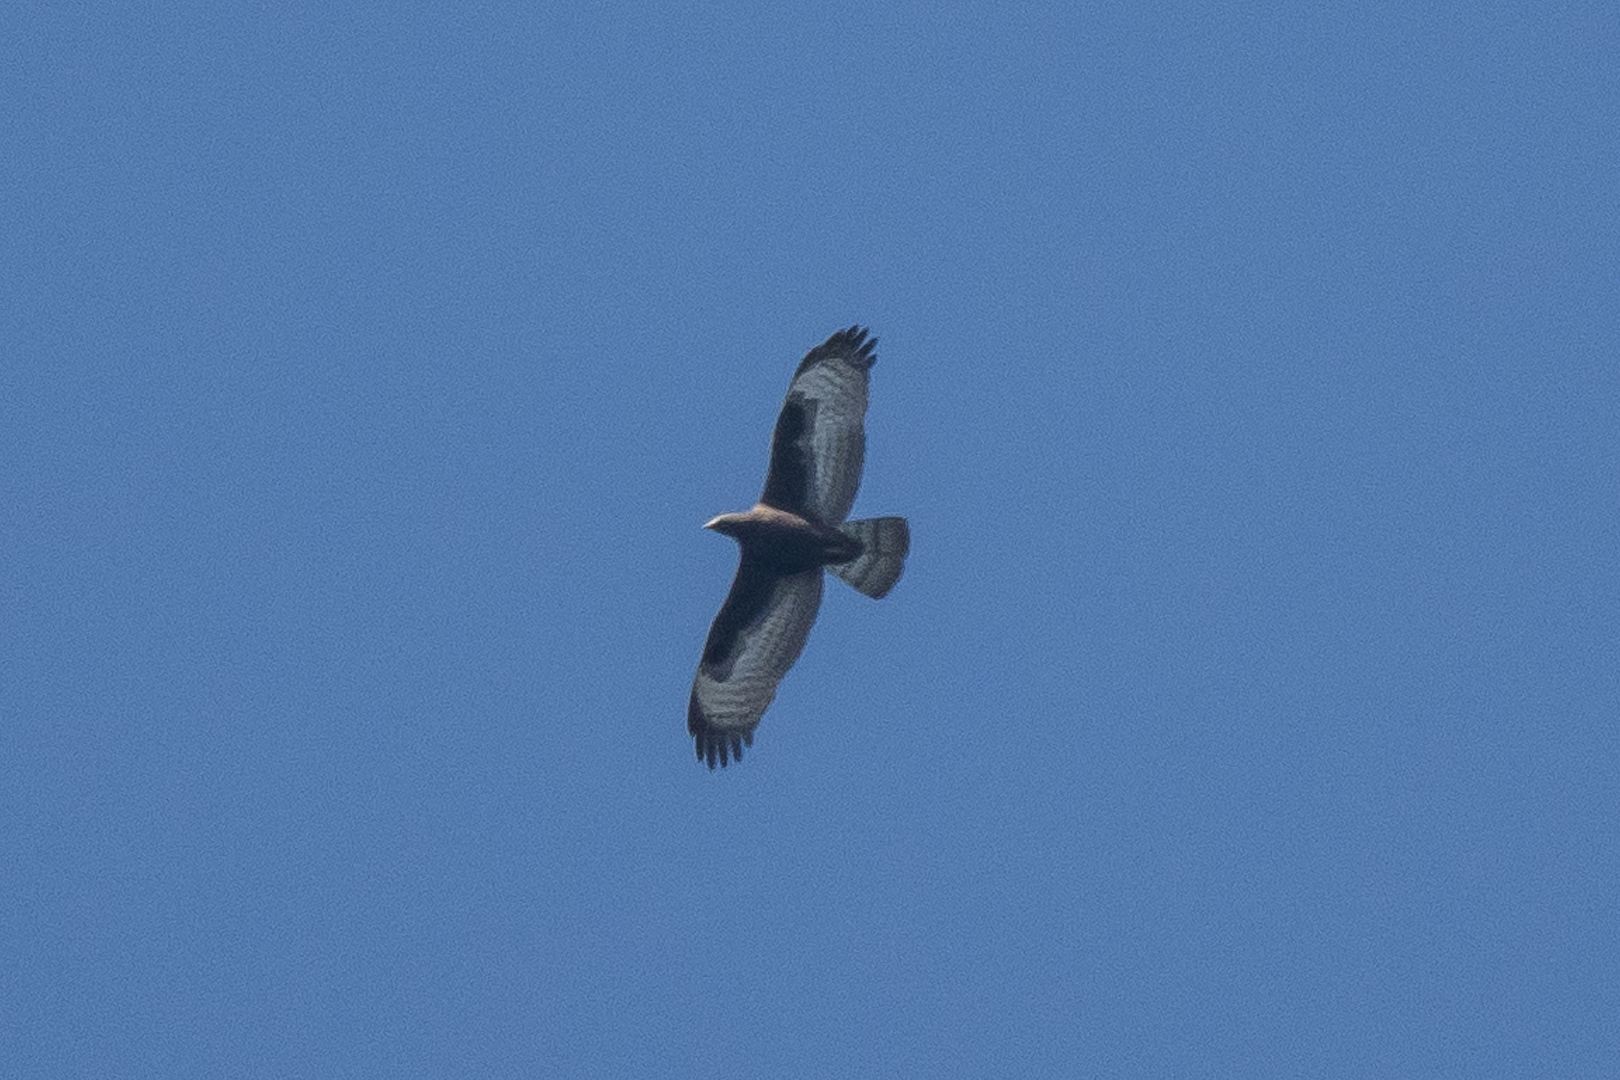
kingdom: Animalia
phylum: Chordata
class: Aves
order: Accipitriformes
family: Accipitridae
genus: Pernis
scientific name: Pernis ptilorhynchus
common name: Crested honey buzzard
